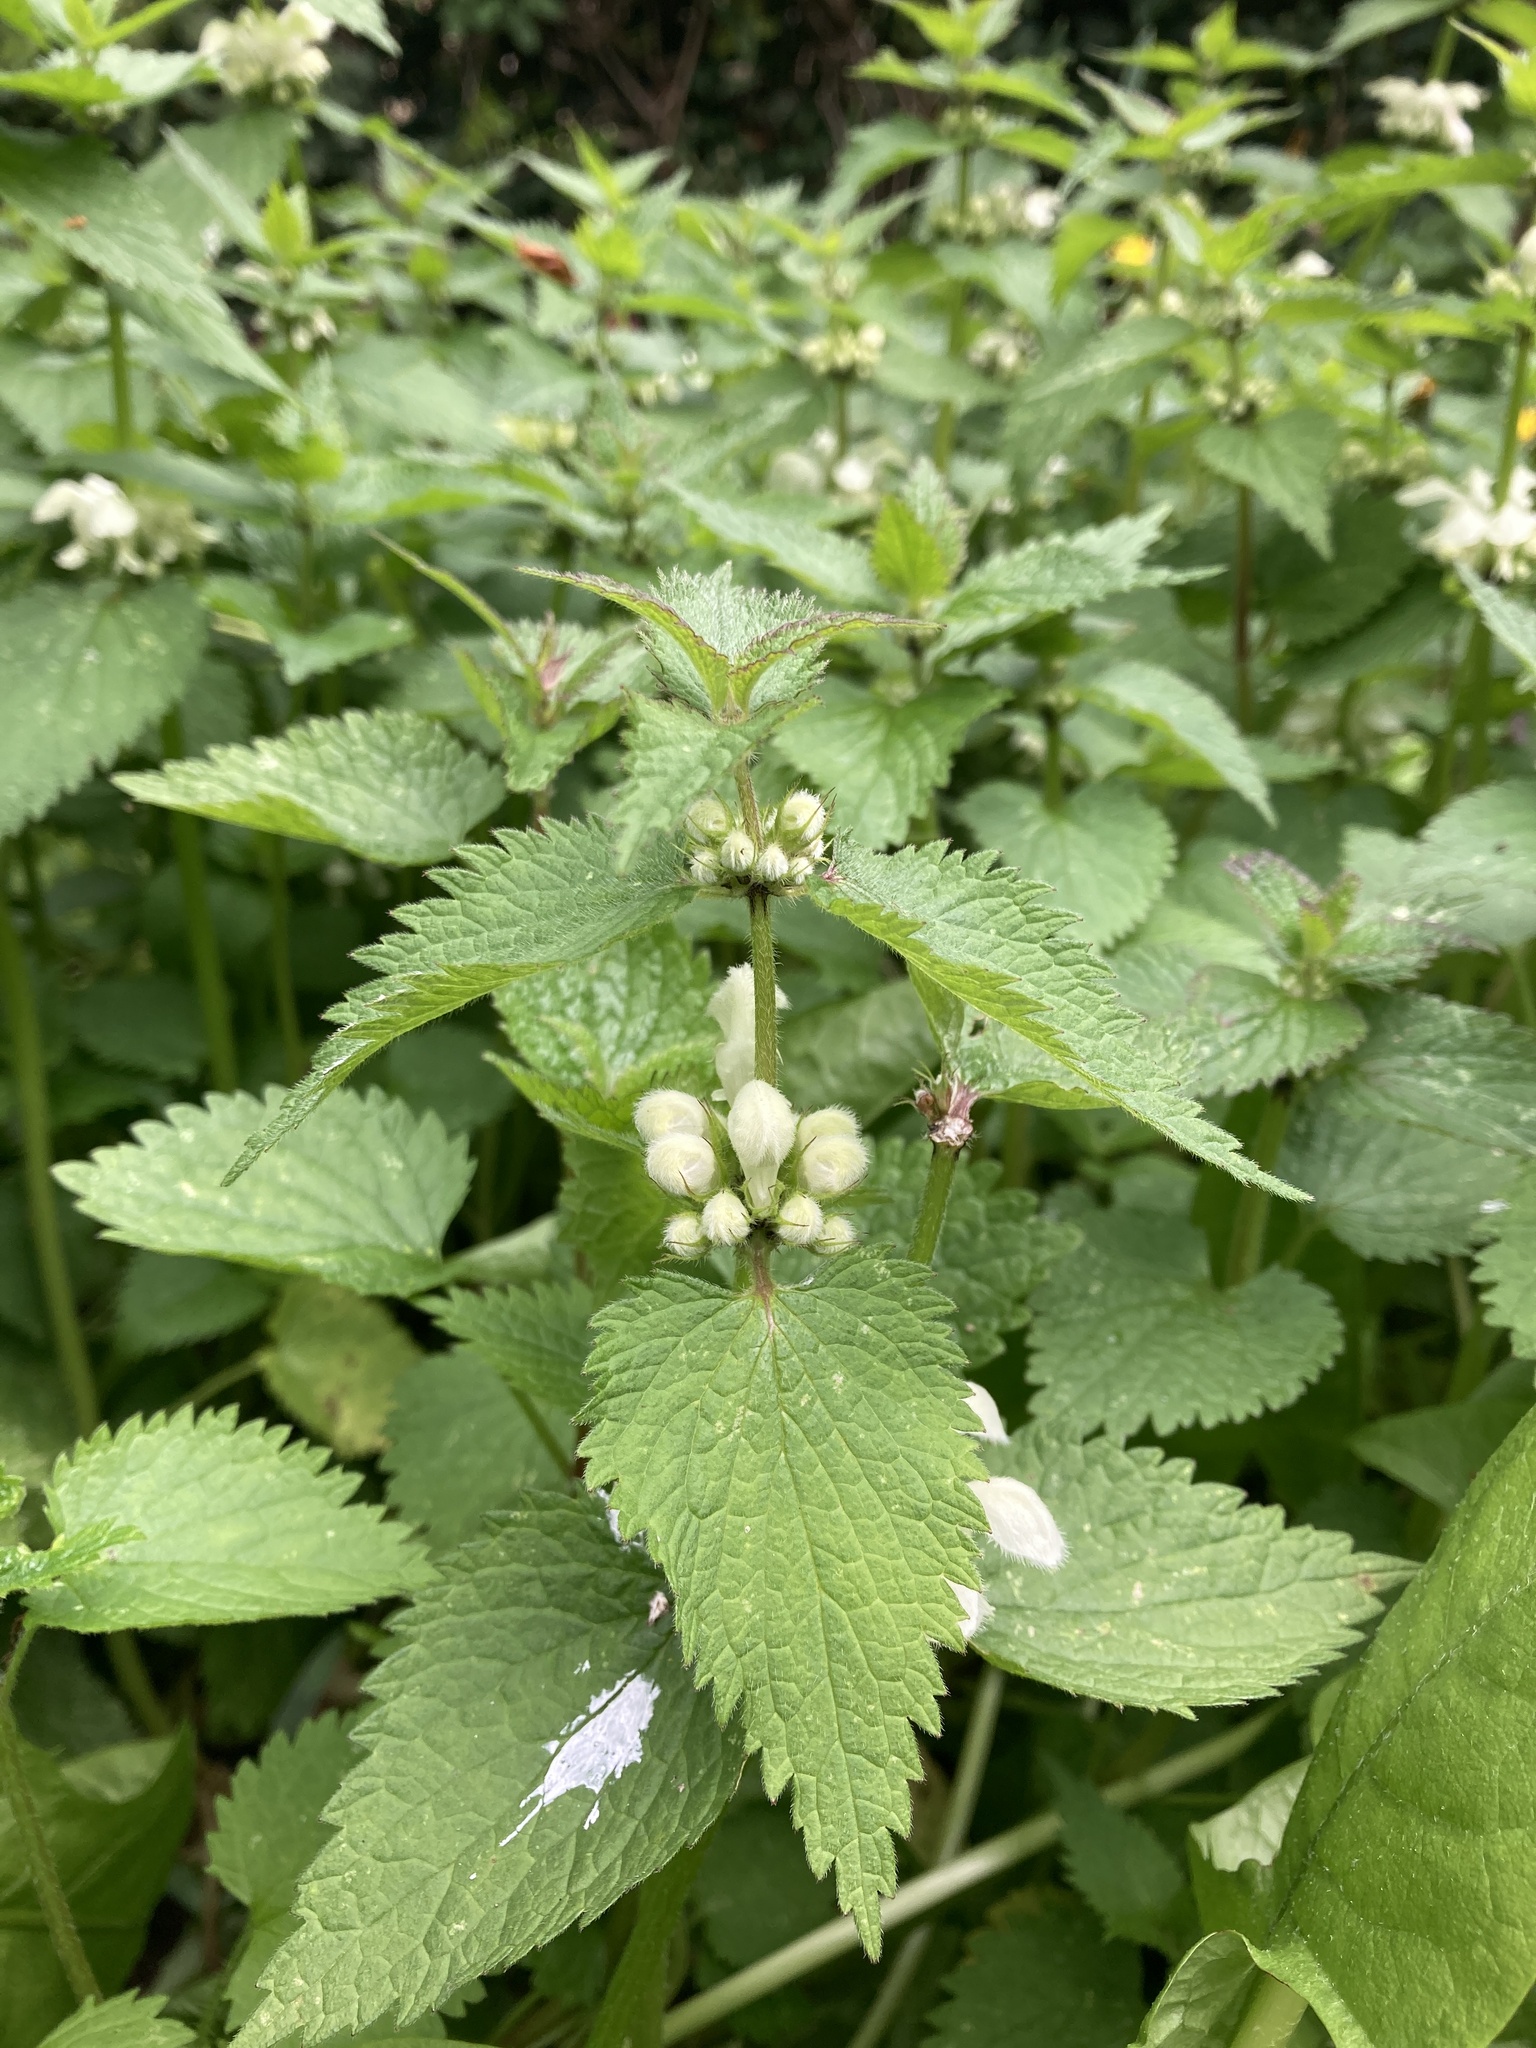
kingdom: Plantae
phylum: Tracheophyta
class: Magnoliopsida
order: Lamiales
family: Lamiaceae
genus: Lamium
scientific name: Lamium album
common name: White dead-nettle
